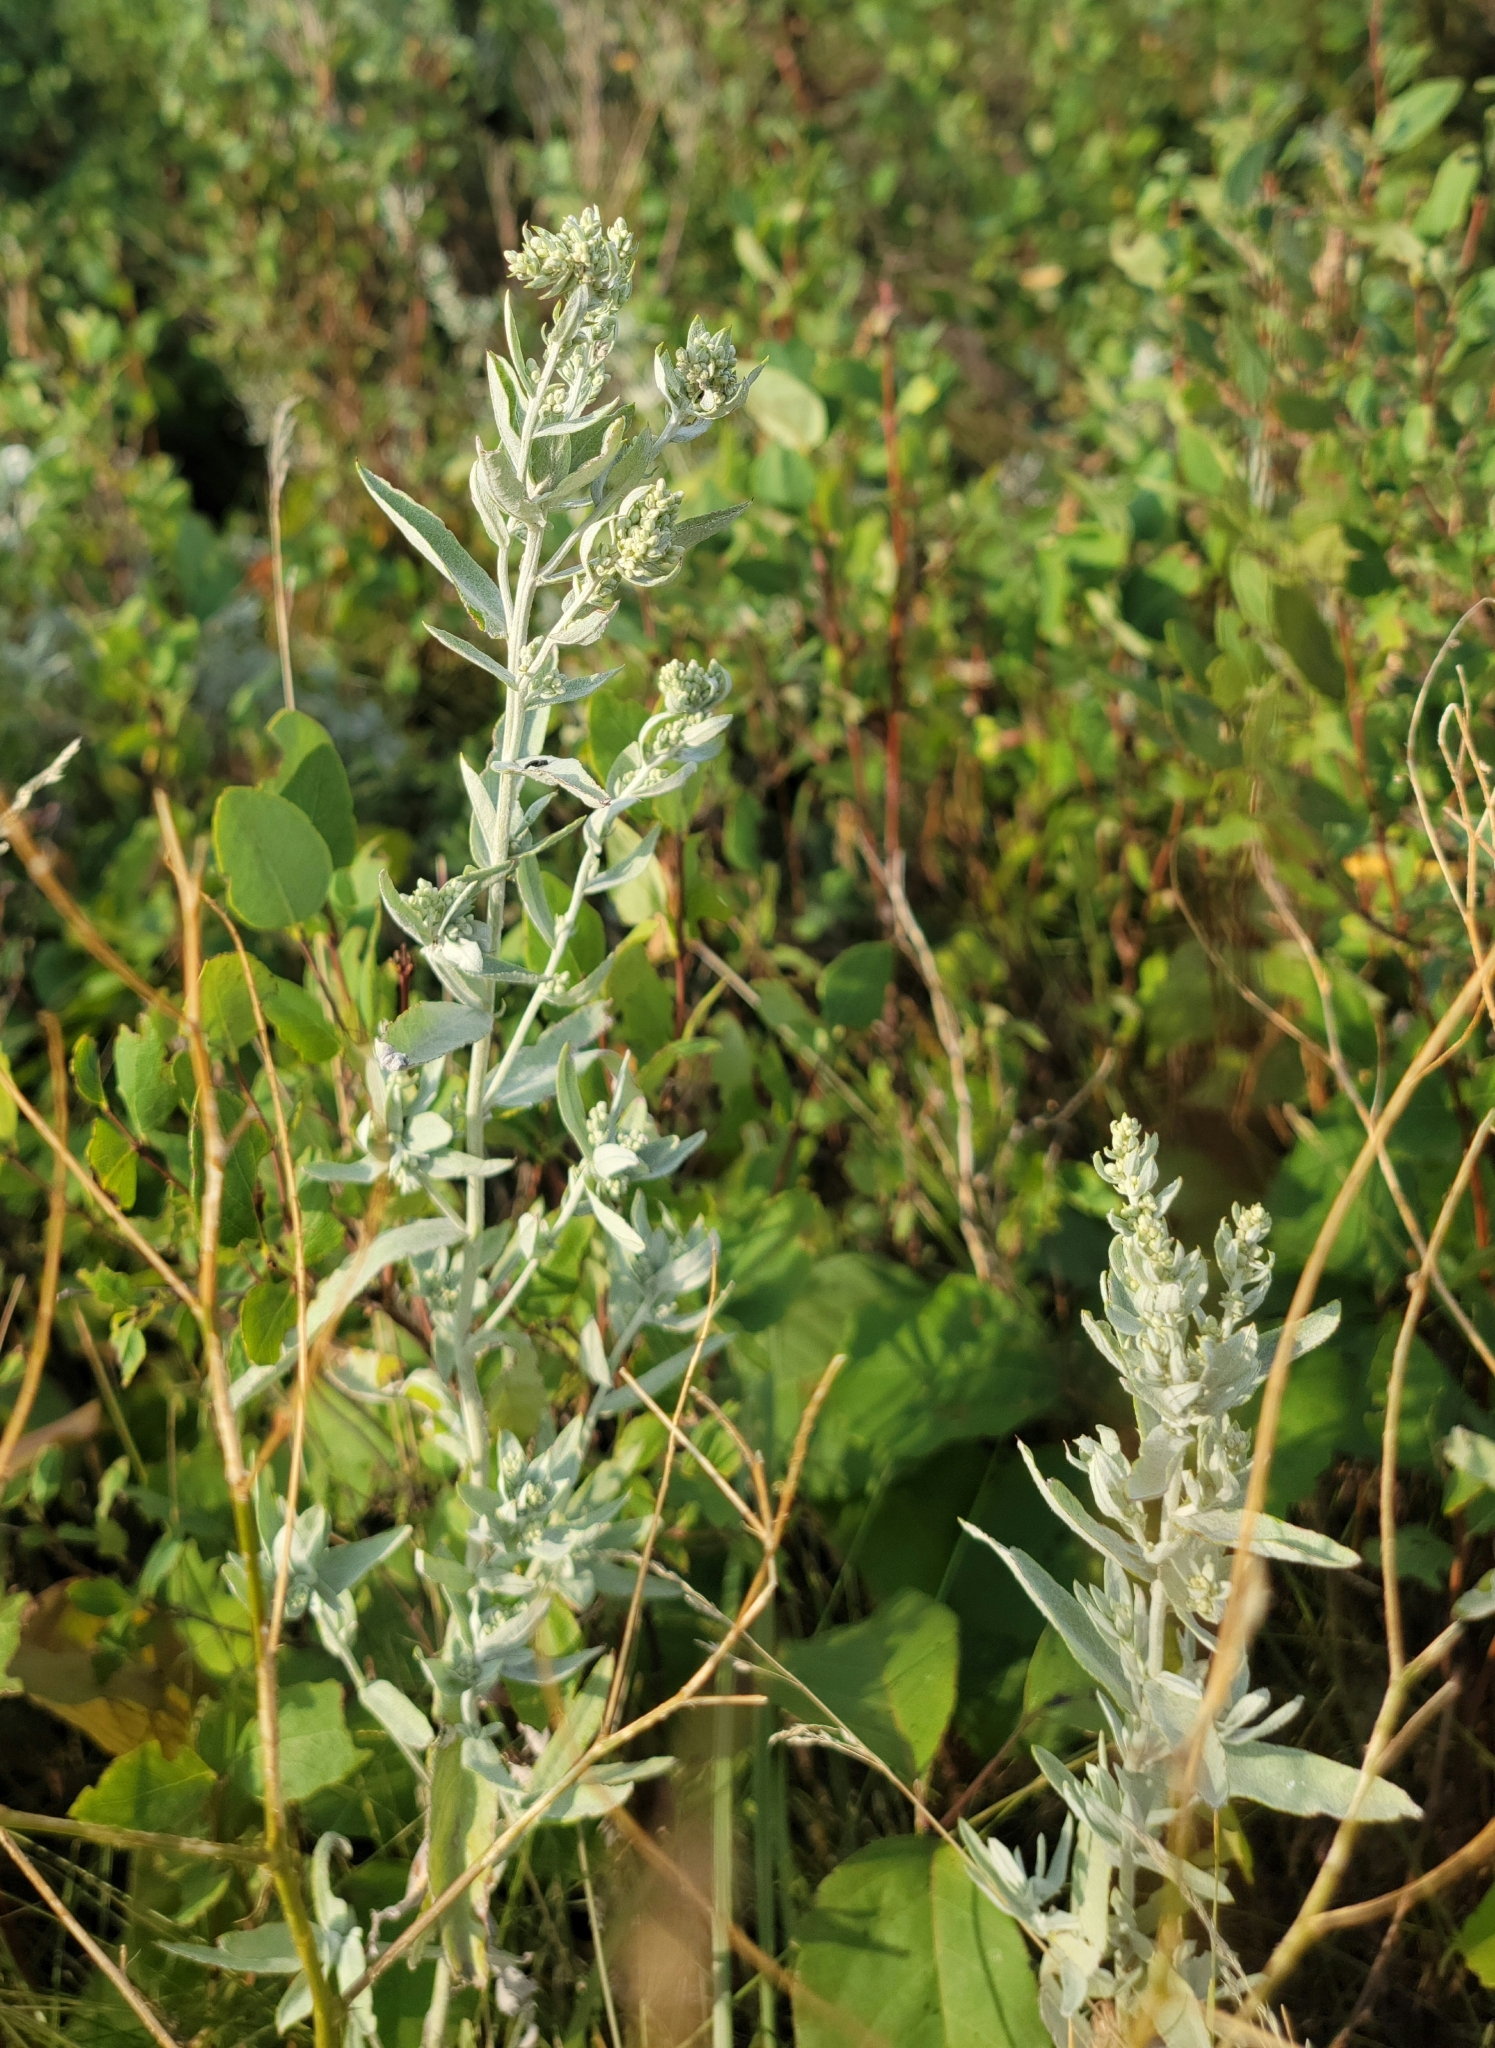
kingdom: Plantae
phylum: Tracheophyta
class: Magnoliopsida
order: Asterales
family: Asteraceae
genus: Artemisia
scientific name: Artemisia ludoviciana
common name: Western mugwort
